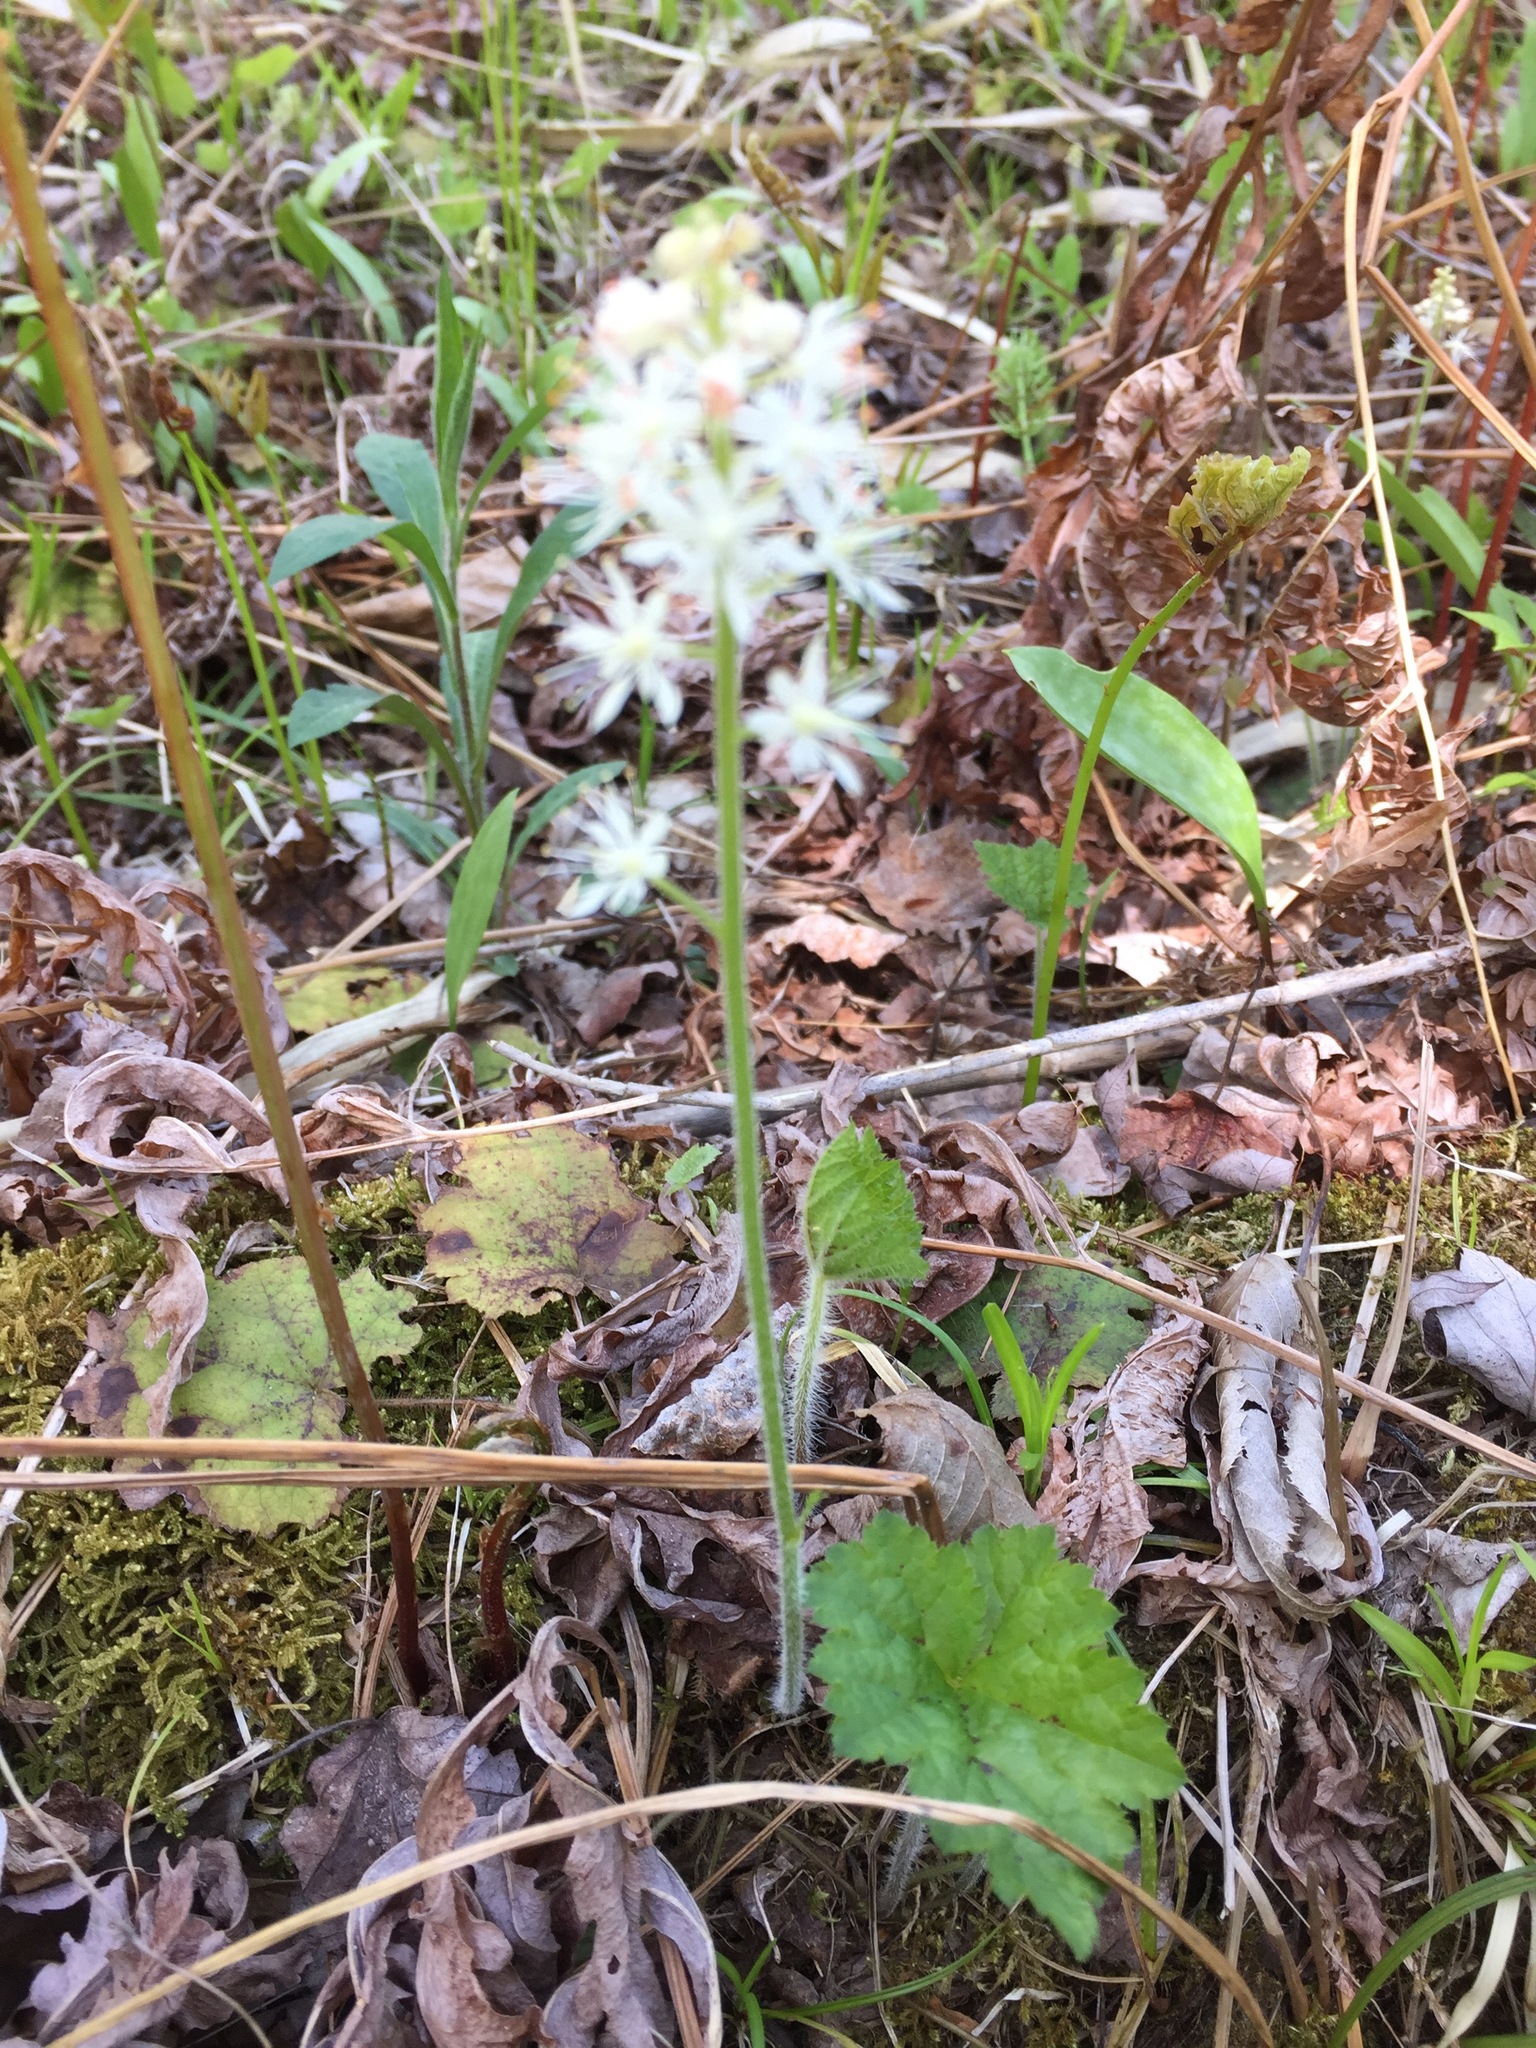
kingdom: Plantae
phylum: Tracheophyta
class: Magnoliopsida
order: Saxifragales
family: Saxifragaceae
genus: Tiarella
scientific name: Tiarella stolonifera
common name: Stoloniferous foamflower
